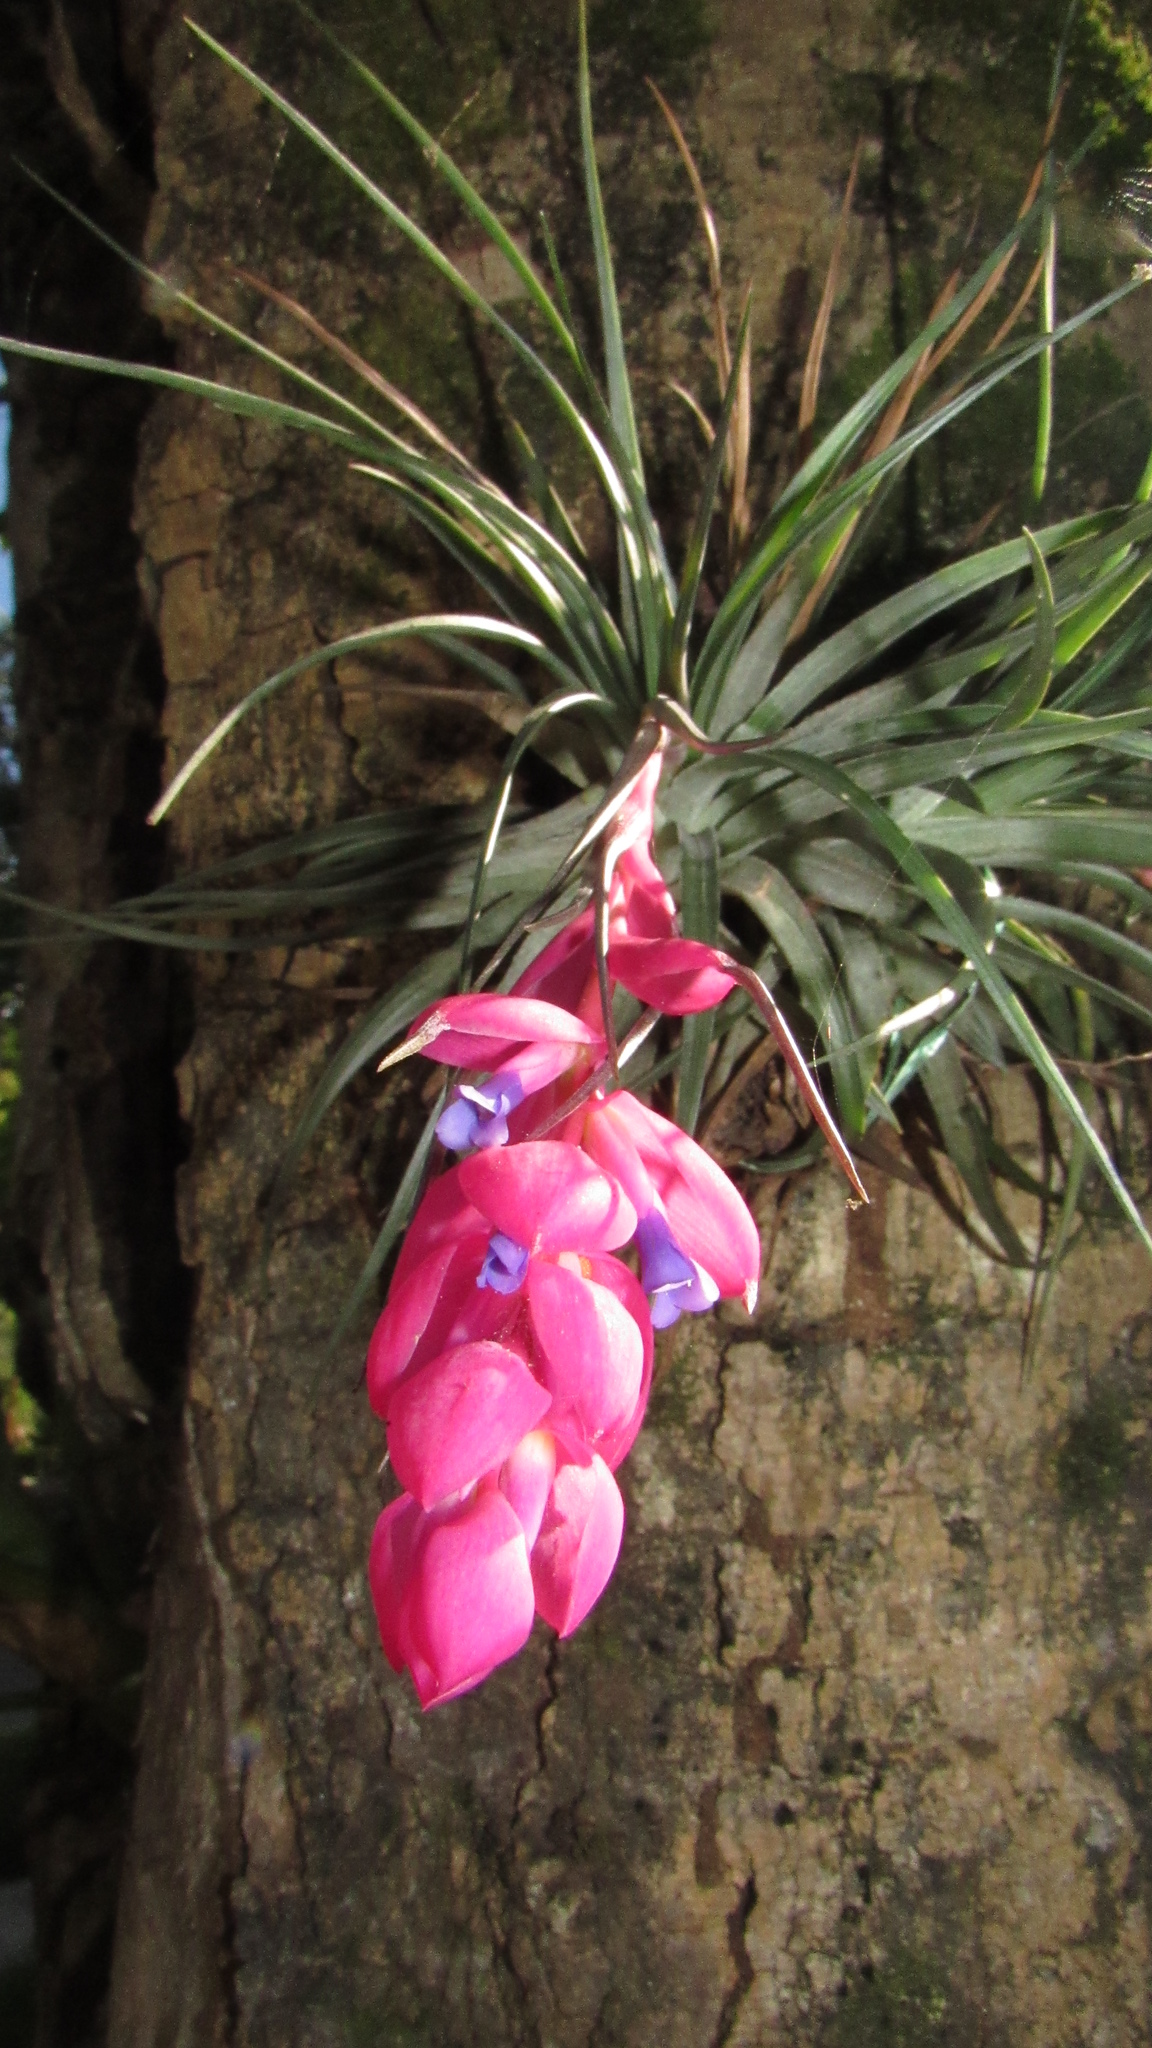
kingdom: Plantae
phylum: Tracheophyta
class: Liliopsida
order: Poales
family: Bromeliaceae
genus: Tillandsia
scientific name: Tillandsia stricta
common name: Airplant
